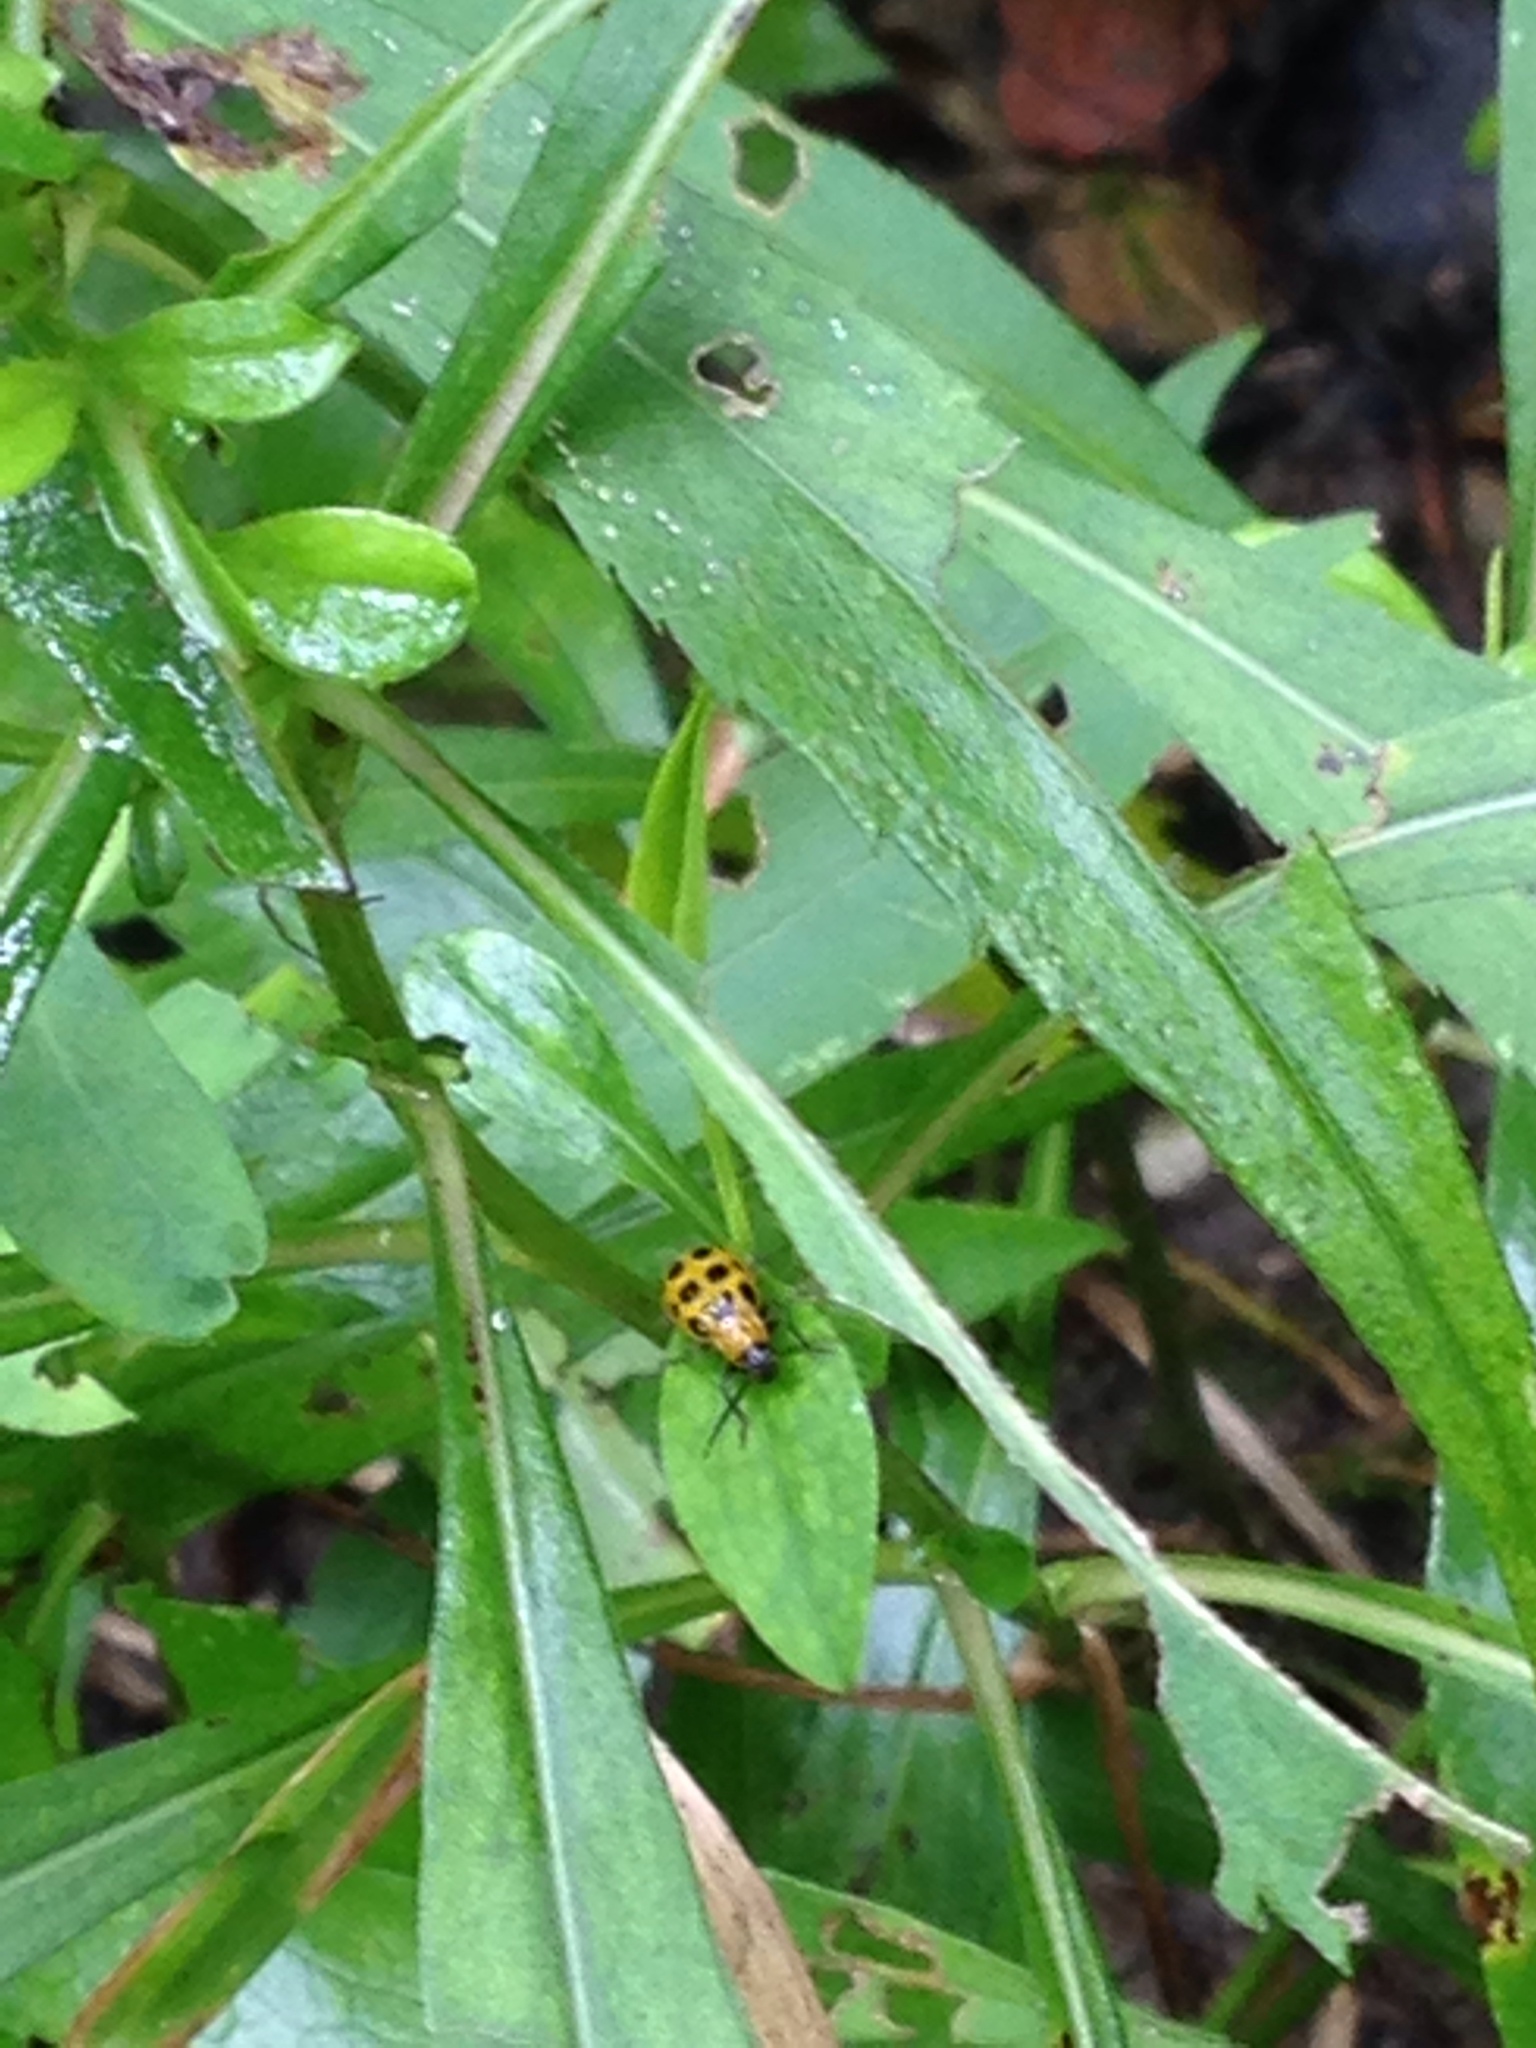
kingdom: Animalia
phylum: Arthropoda
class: Insecta
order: Coleoptera
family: Chrysomelidae
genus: Diabrotica
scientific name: Diabrotica undecimpunctata
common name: Spotted cucumber beetle
